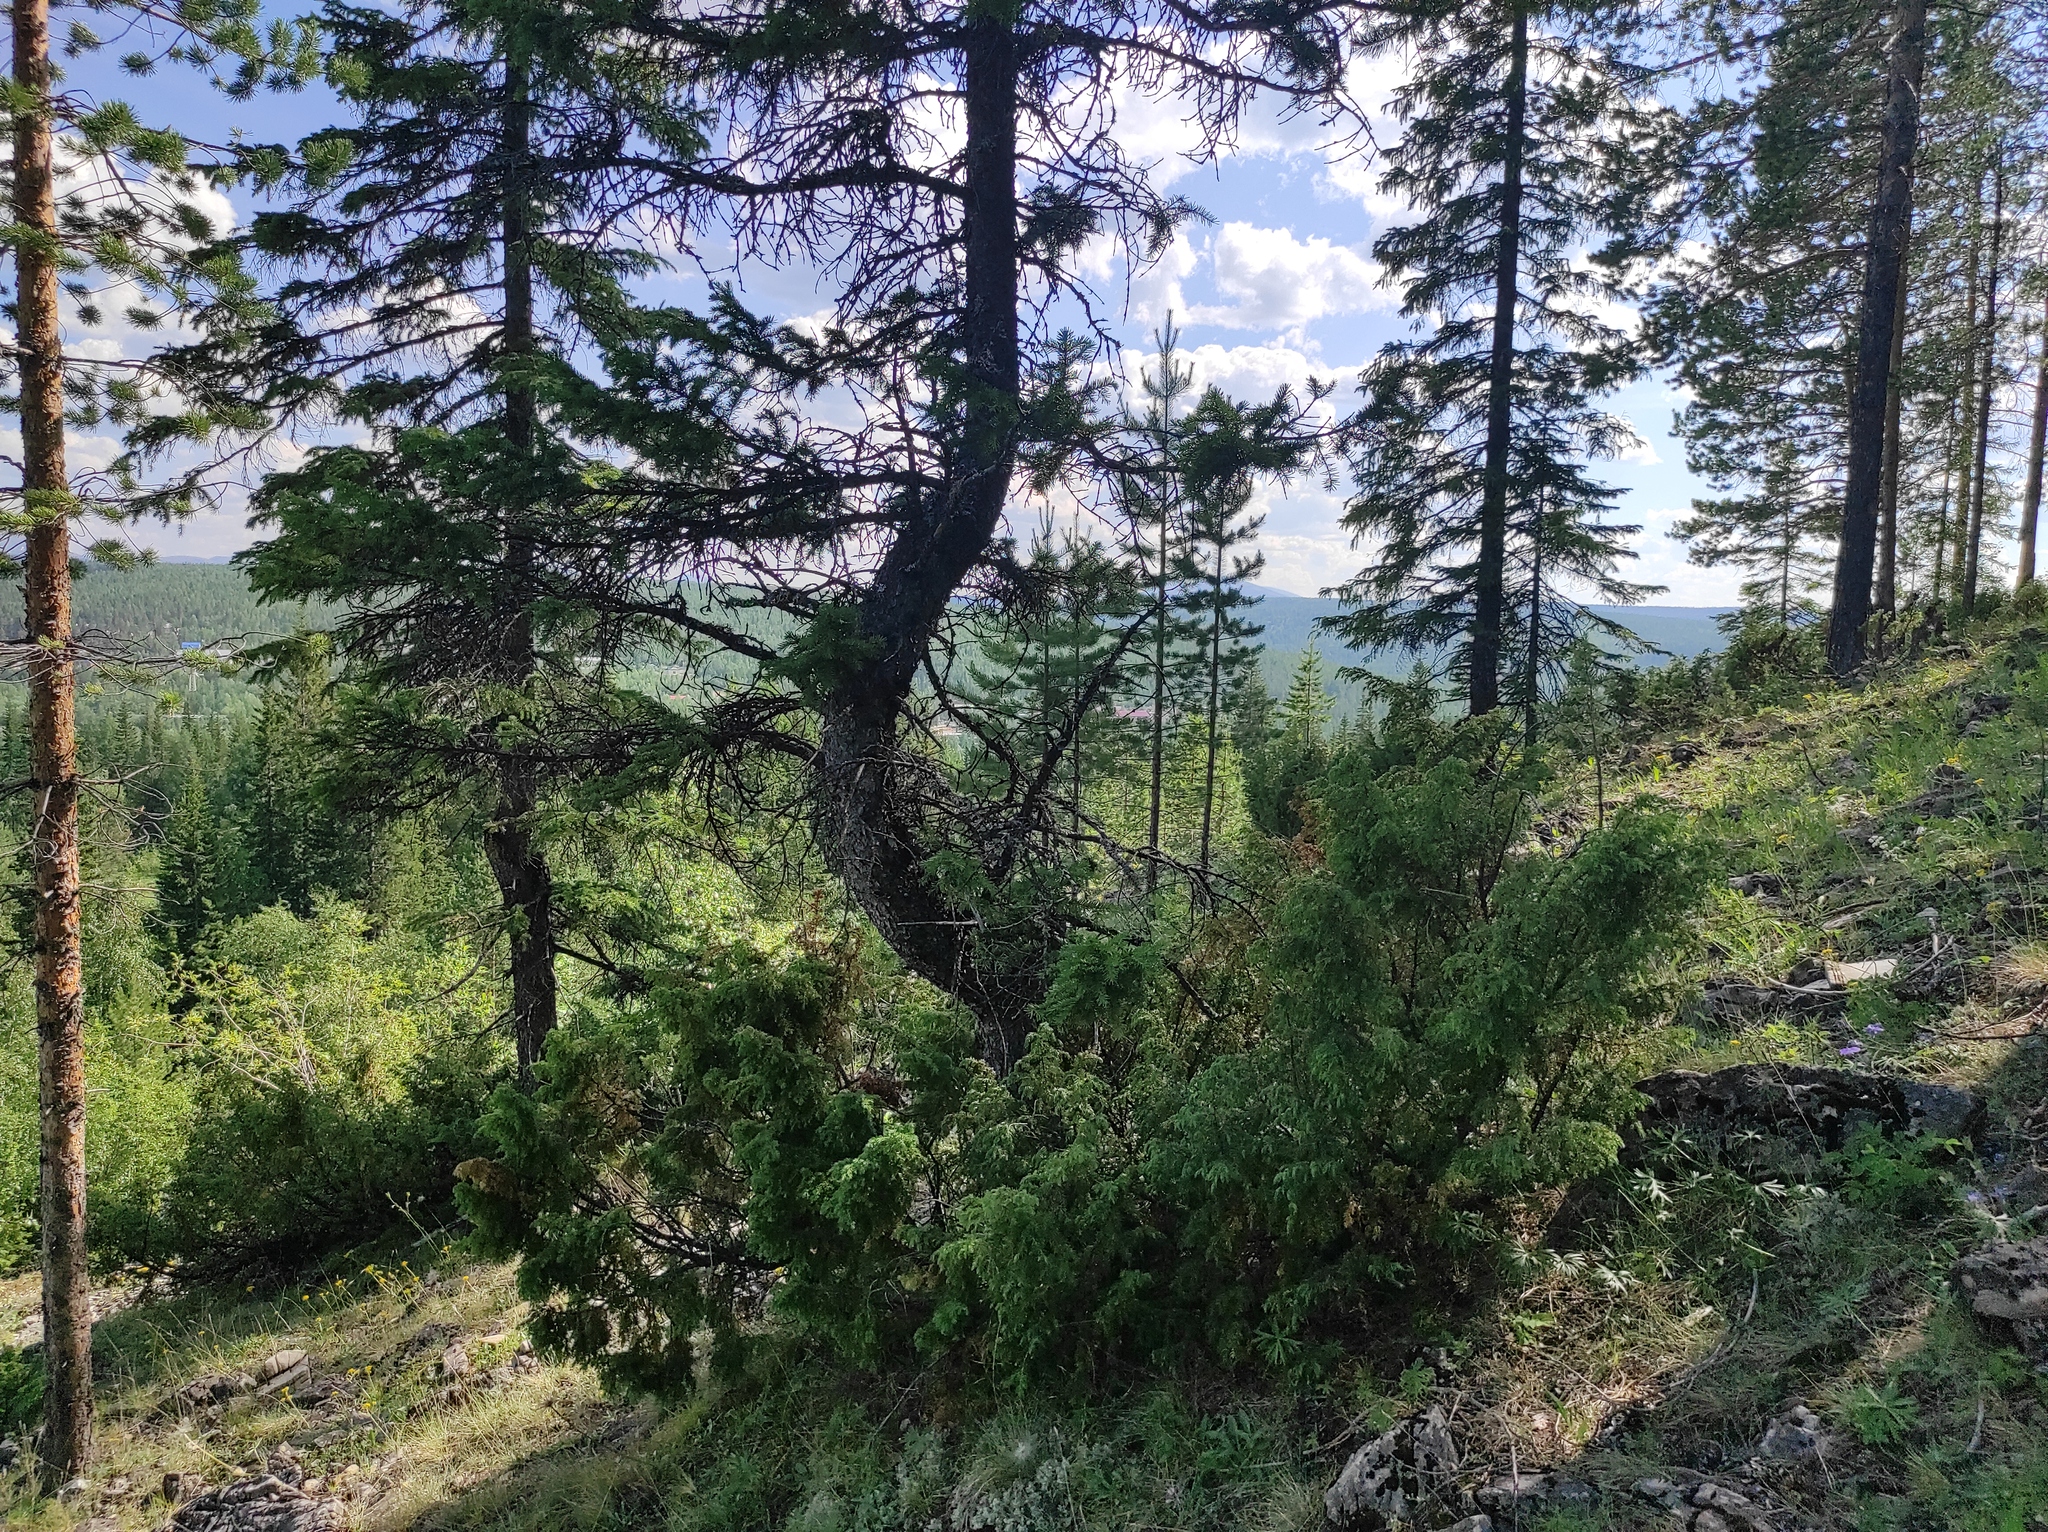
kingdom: Plantae
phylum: Tracheophyta
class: Pinopsida
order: Pinales
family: Pinaceae
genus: Picea
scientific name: Picea obovata
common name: Siberian spruce
